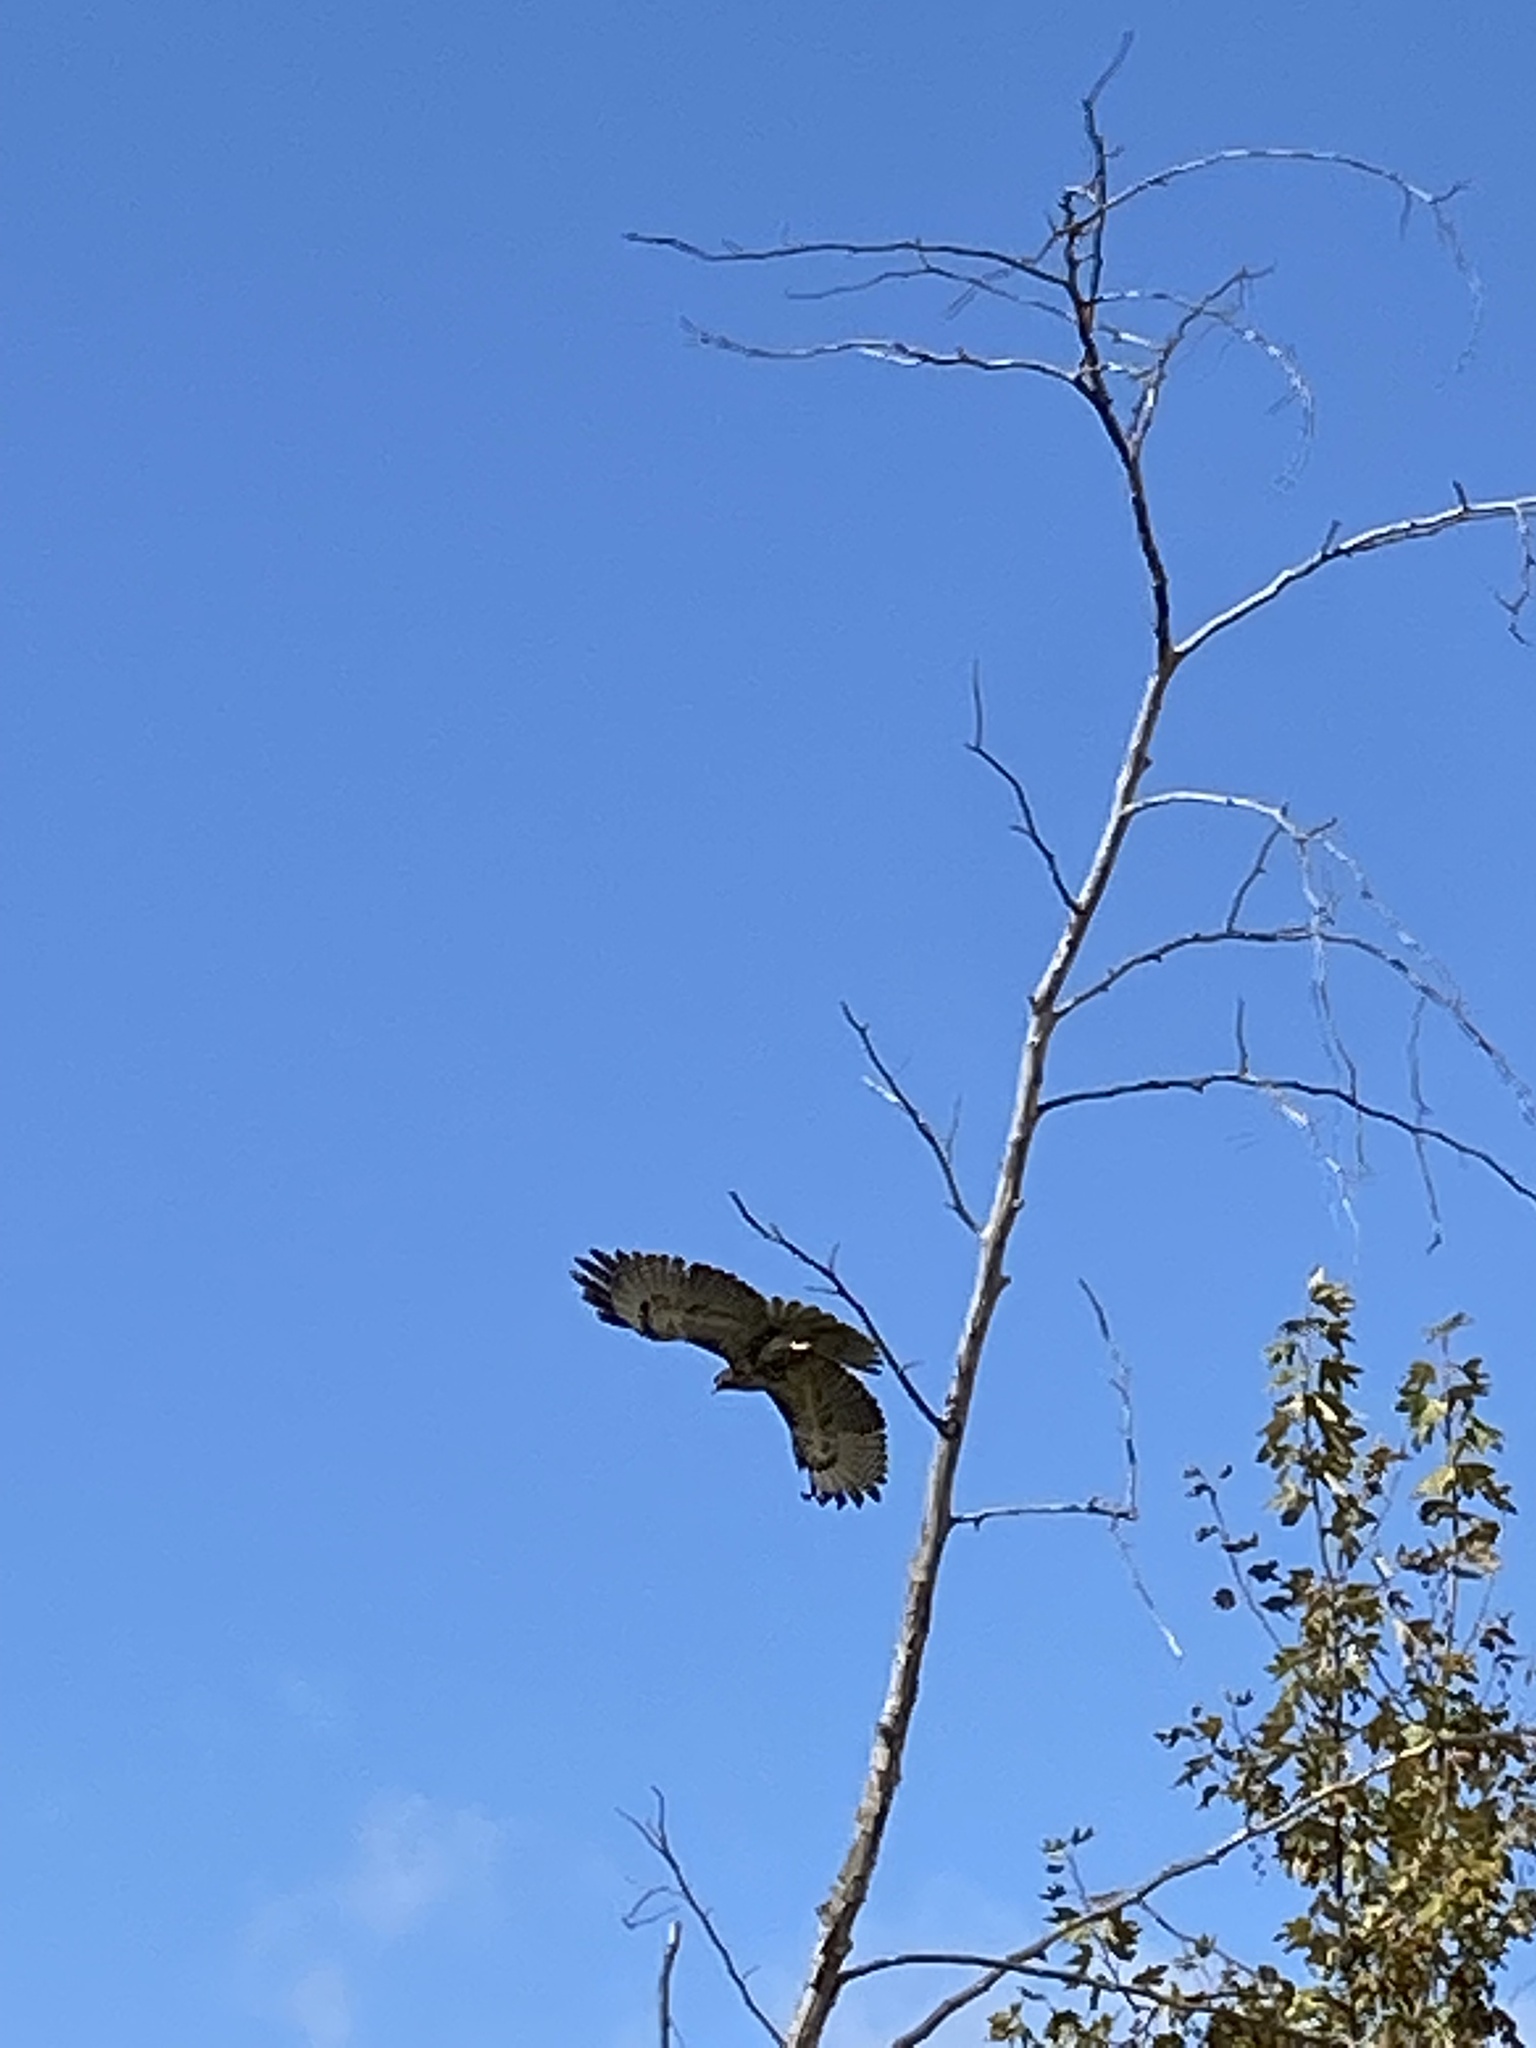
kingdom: Animalia
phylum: Chordata
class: Aves
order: Accipitriformes
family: Accipitridae
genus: Buteo
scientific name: Buteo jamaicensis
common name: Red-tailed hawk
